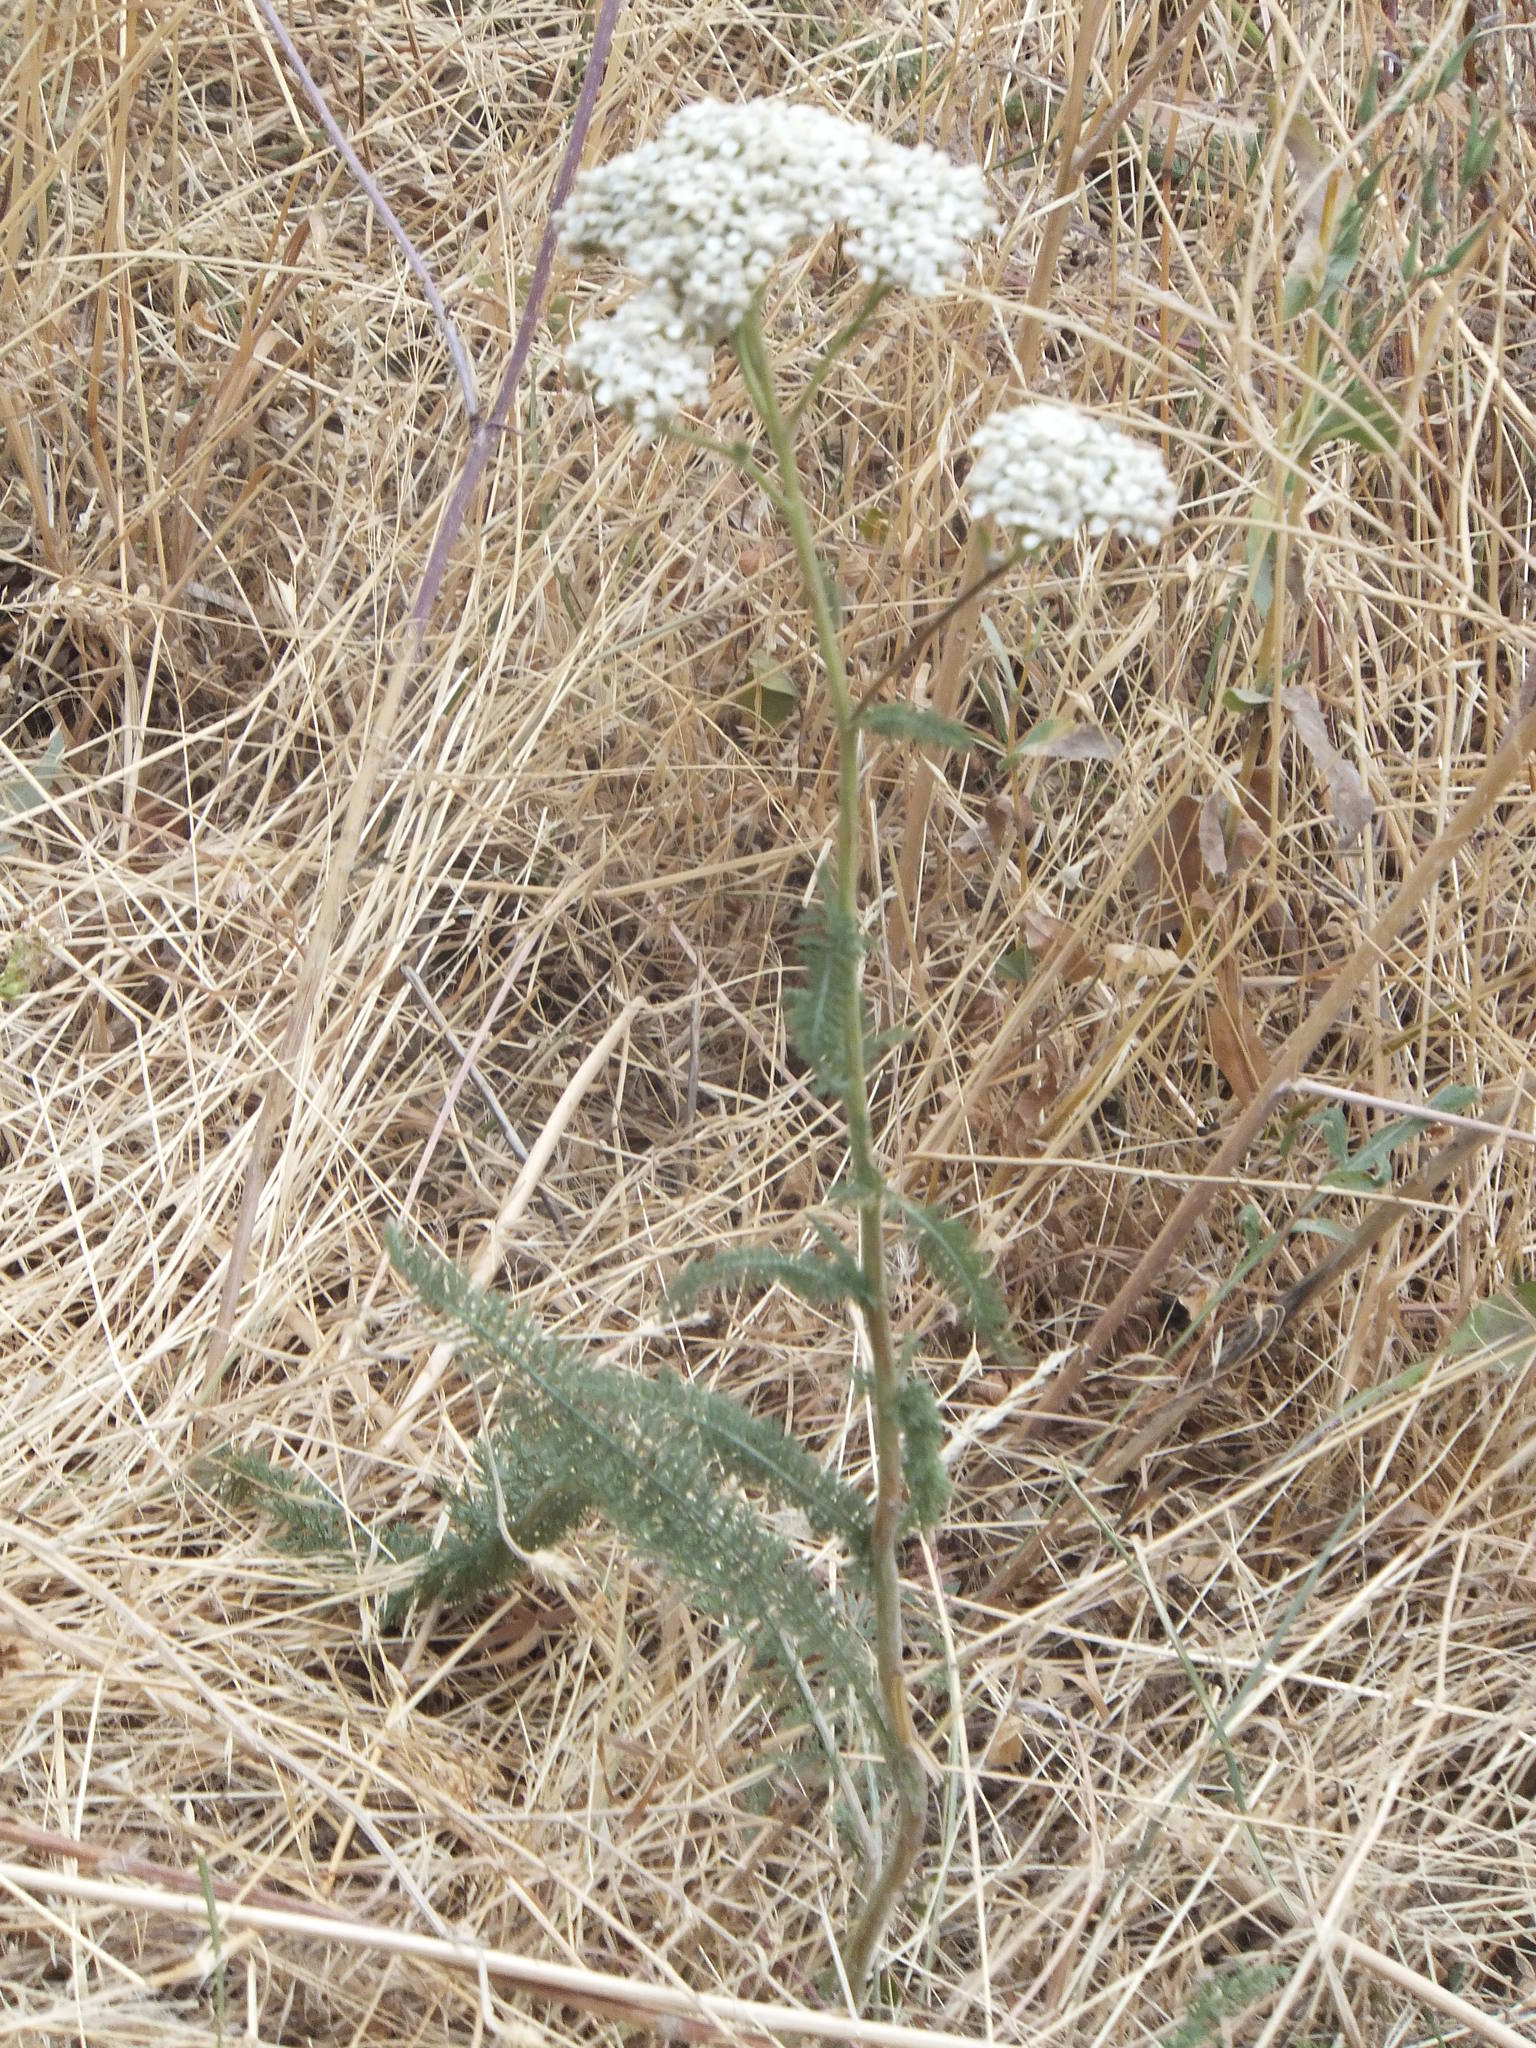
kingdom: Plantae
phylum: Tracheophyta
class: Magnoliopsida
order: Asterales
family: Asteraceae
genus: Achillea
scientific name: Achillea millefolium
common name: Yarrow
